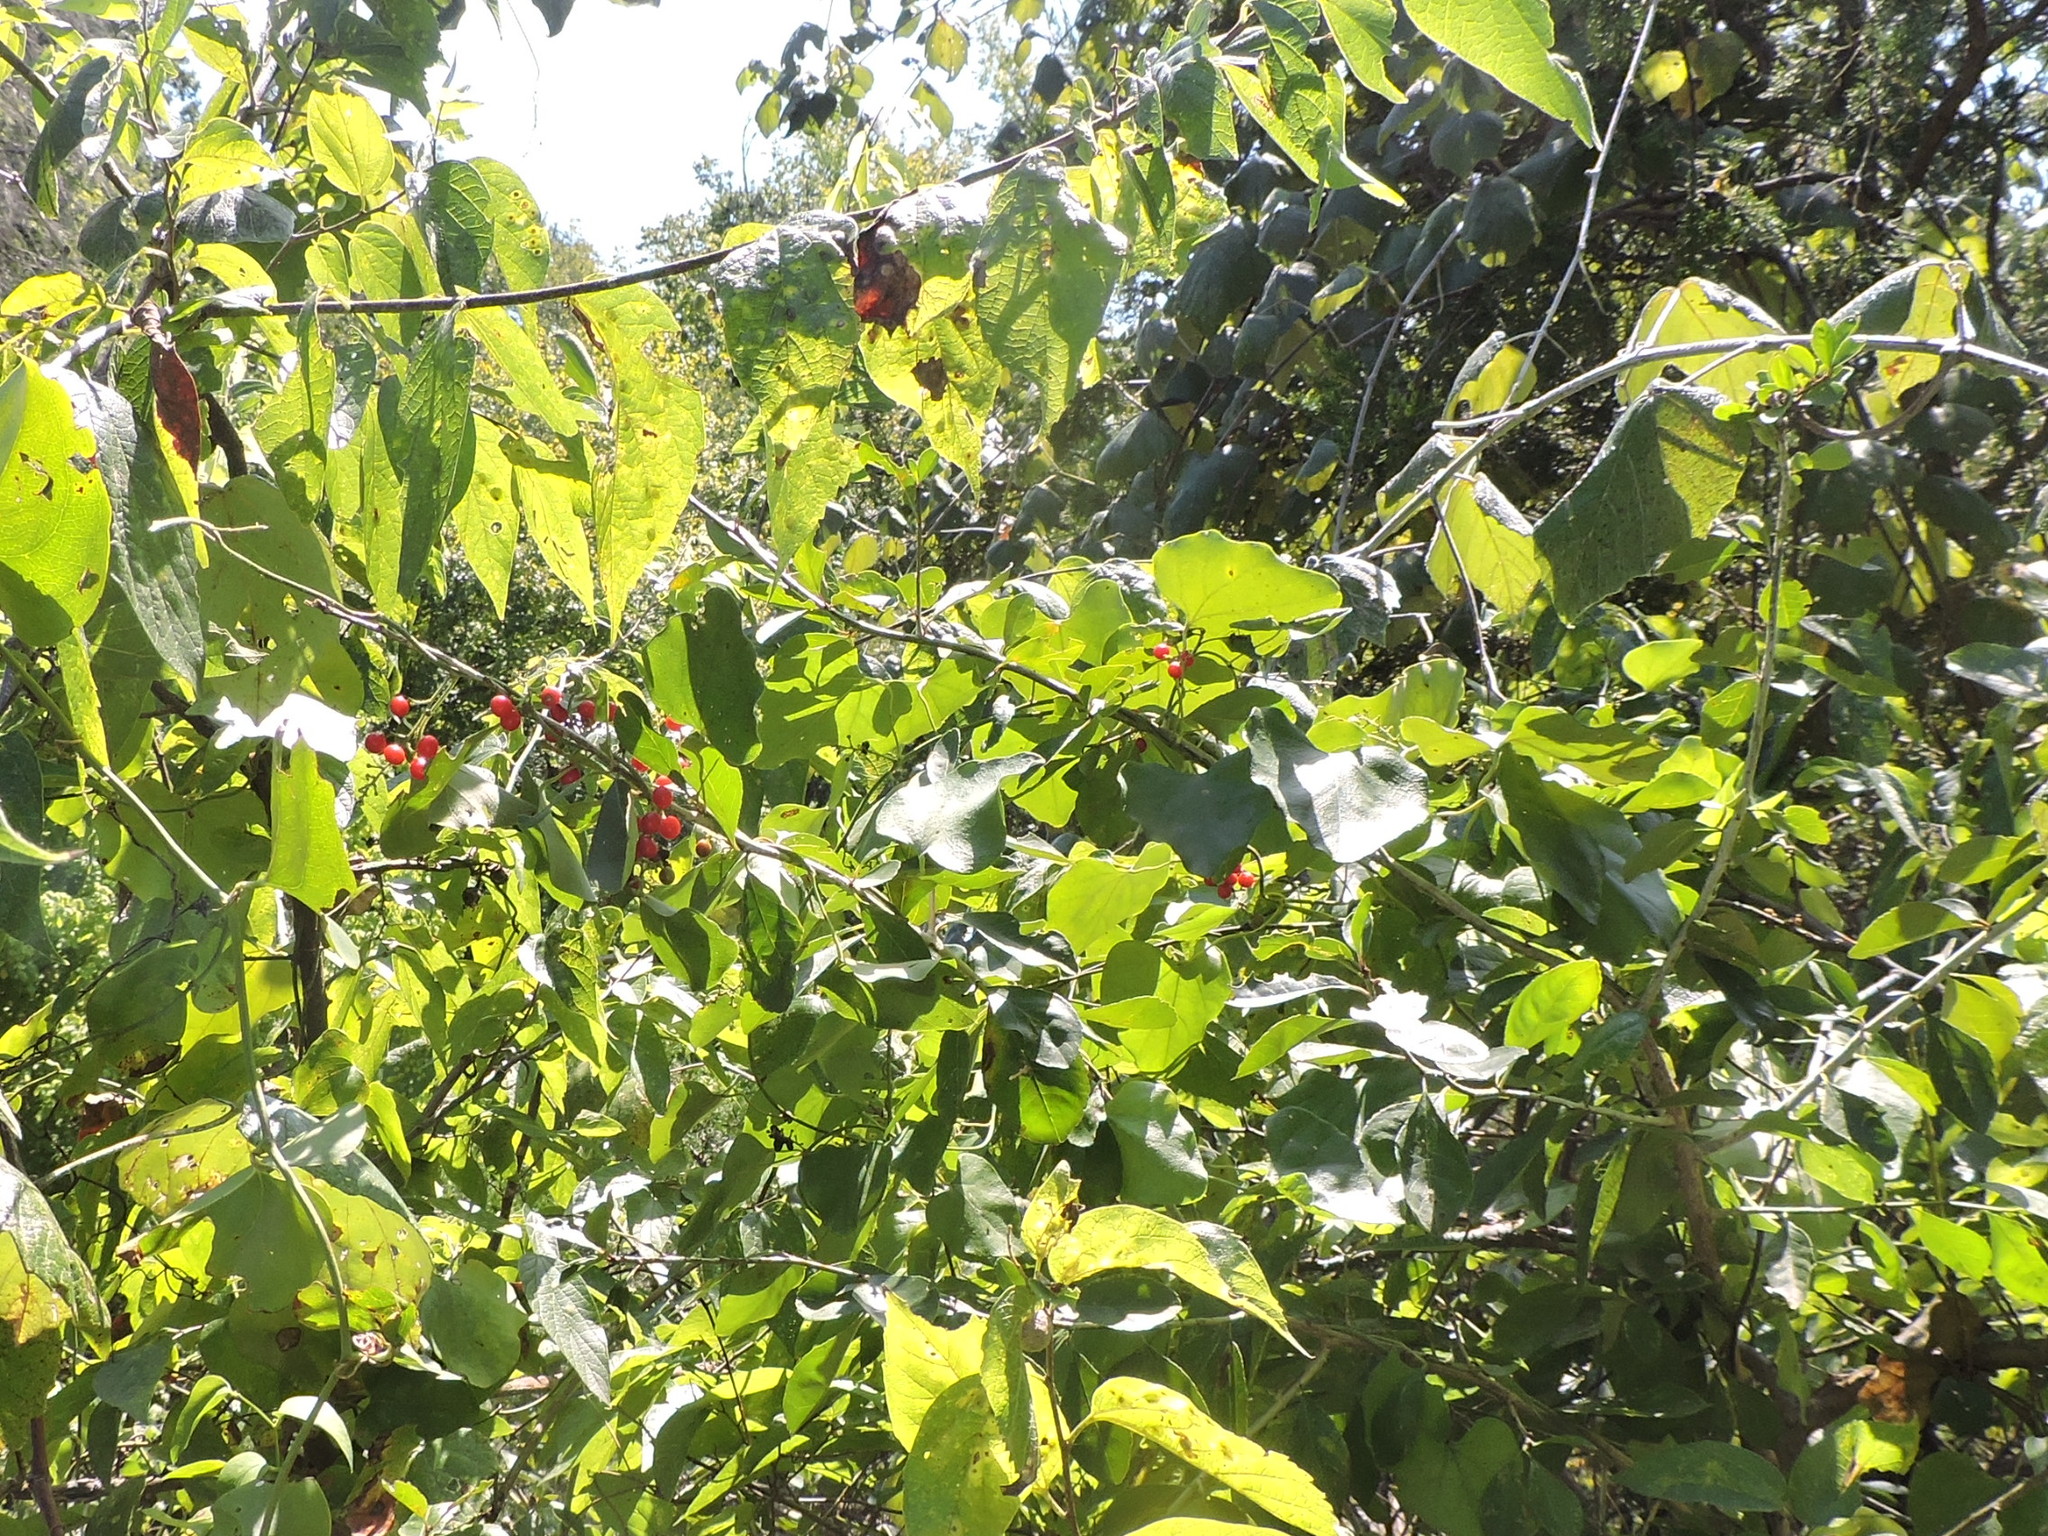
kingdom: Plantae
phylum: Tracheophyta
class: Magnoliopsida
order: Ranunculales
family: Menispermaceae
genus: Cocculus
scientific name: Cocculus carolinus
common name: Carolina moonseed
